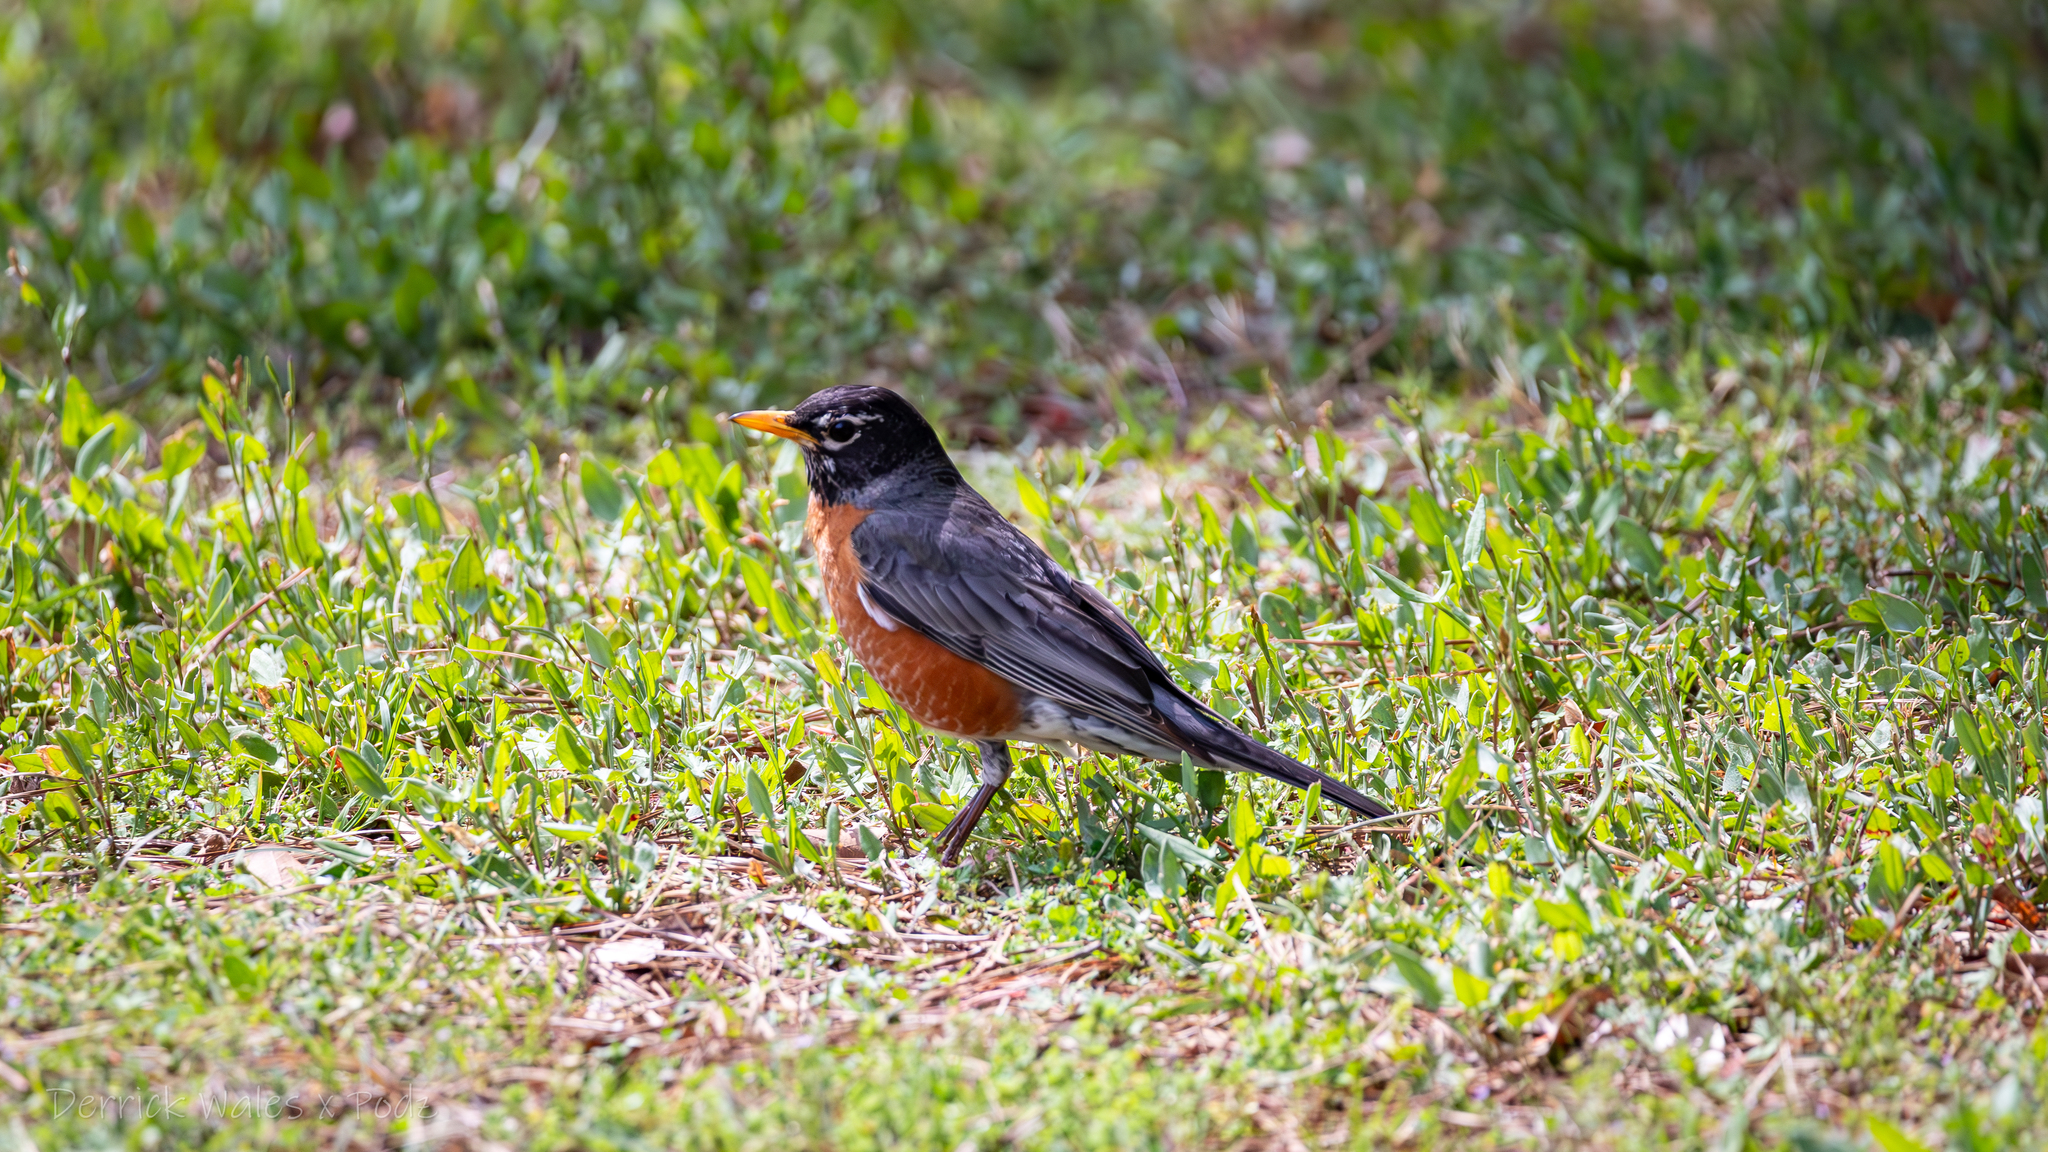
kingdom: Animalia
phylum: Chordata
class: Aves
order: Passeriformes
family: Turdidae
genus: Turdus
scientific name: Turdus migratorius
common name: American robin
